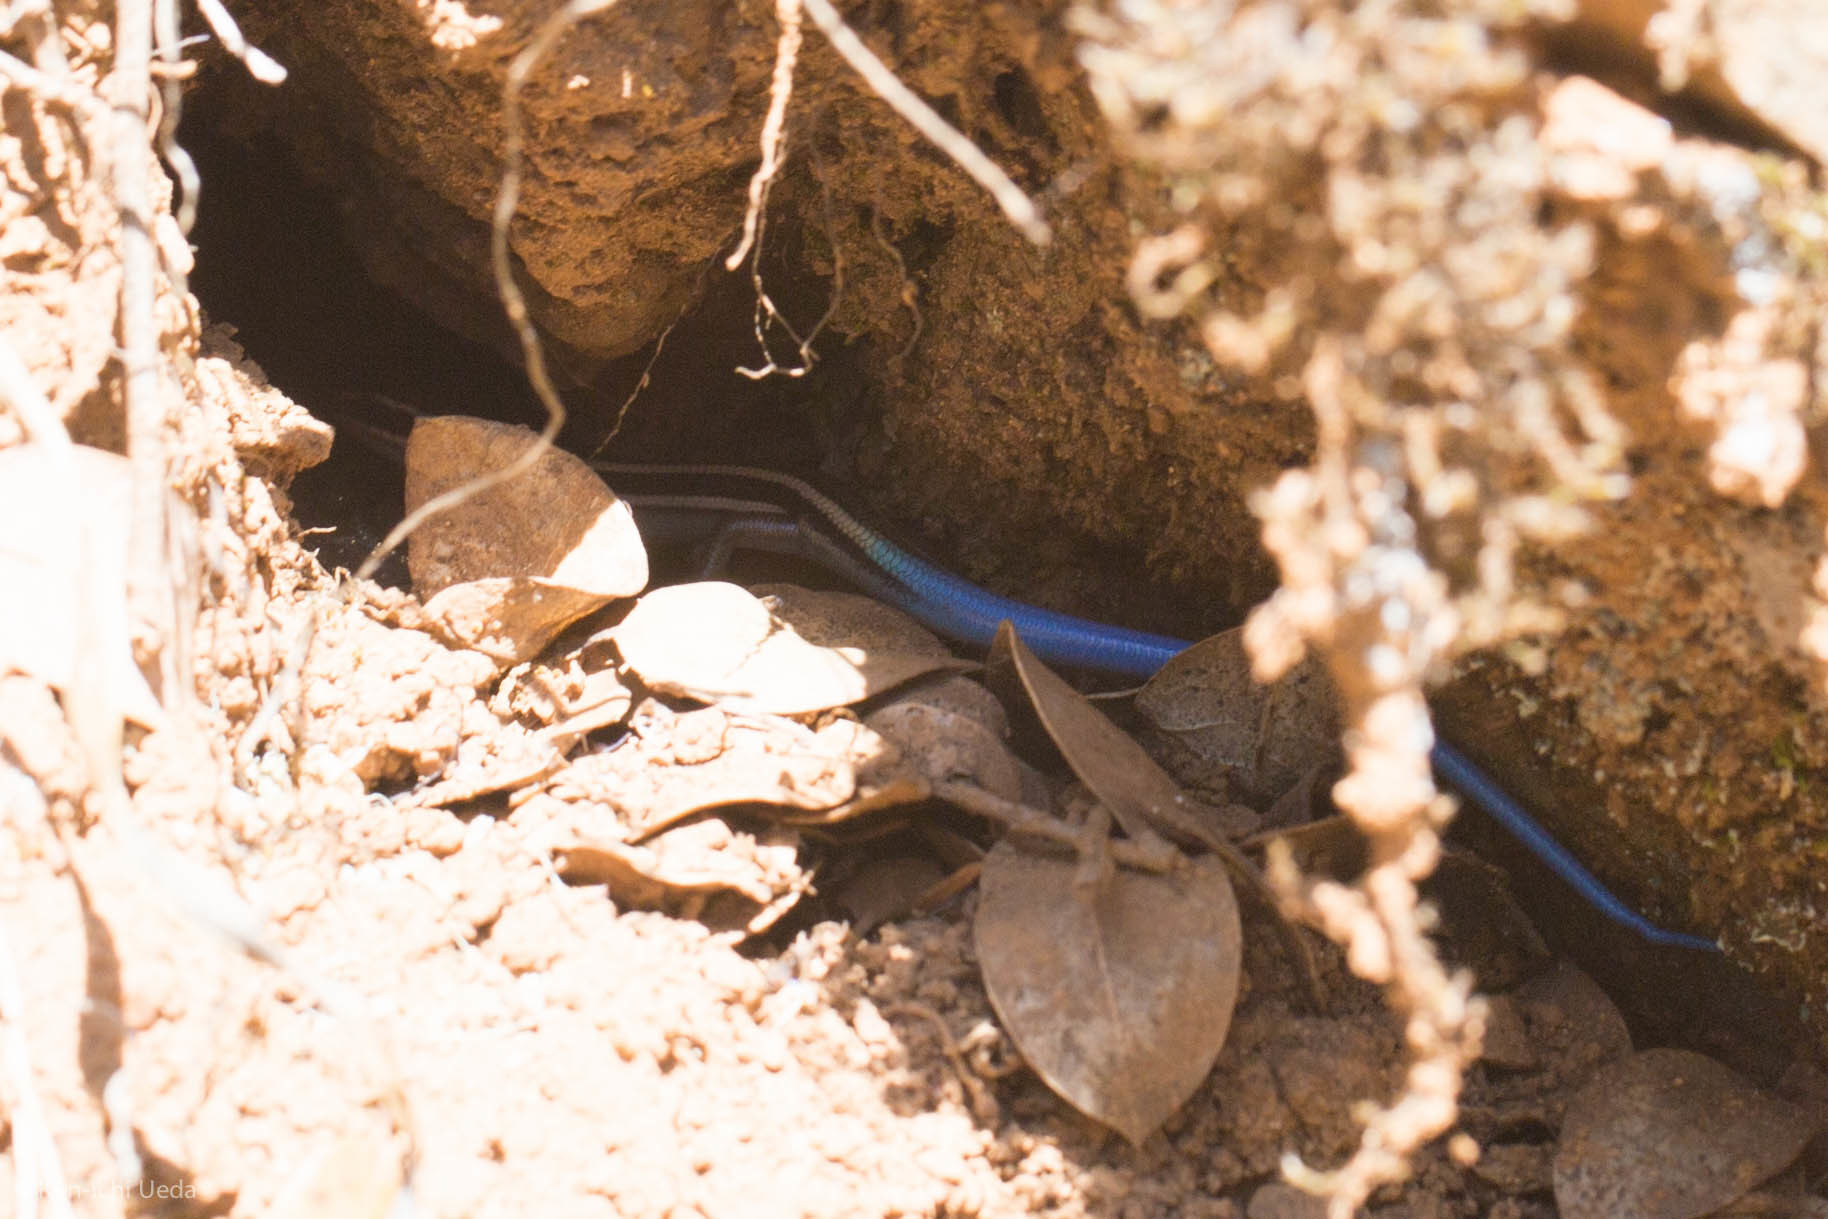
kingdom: Animalia
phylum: Chordata
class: Squamata
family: Scincidae
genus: Plestiodon
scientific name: Plestiodon skiltonianus
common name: Coronado island skink [interparietalis]
